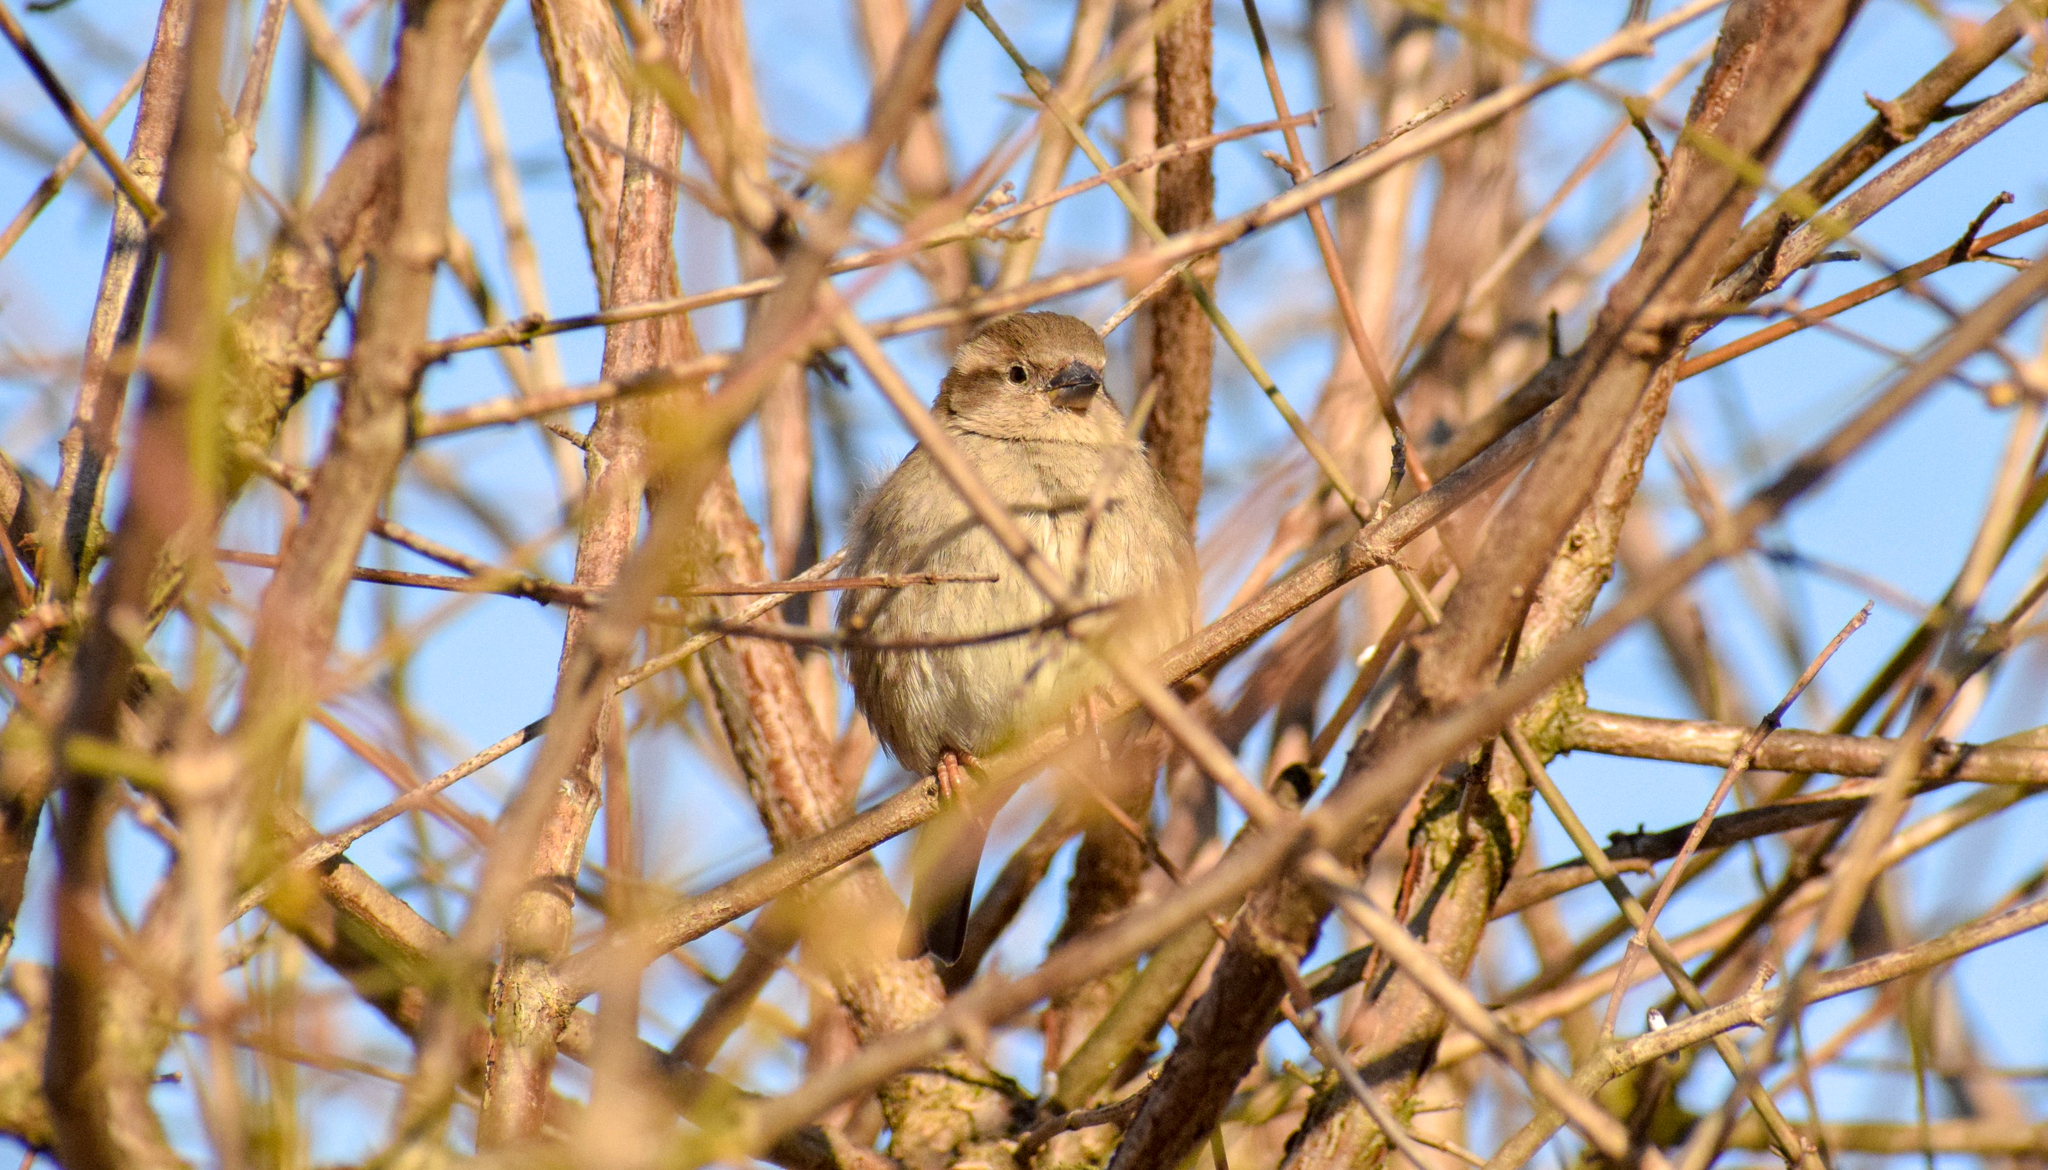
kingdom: Animalia
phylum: Chordata
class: Aves
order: Passeriformes
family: Passeridae
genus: Passer
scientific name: Passer domesticus
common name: House sparrow
